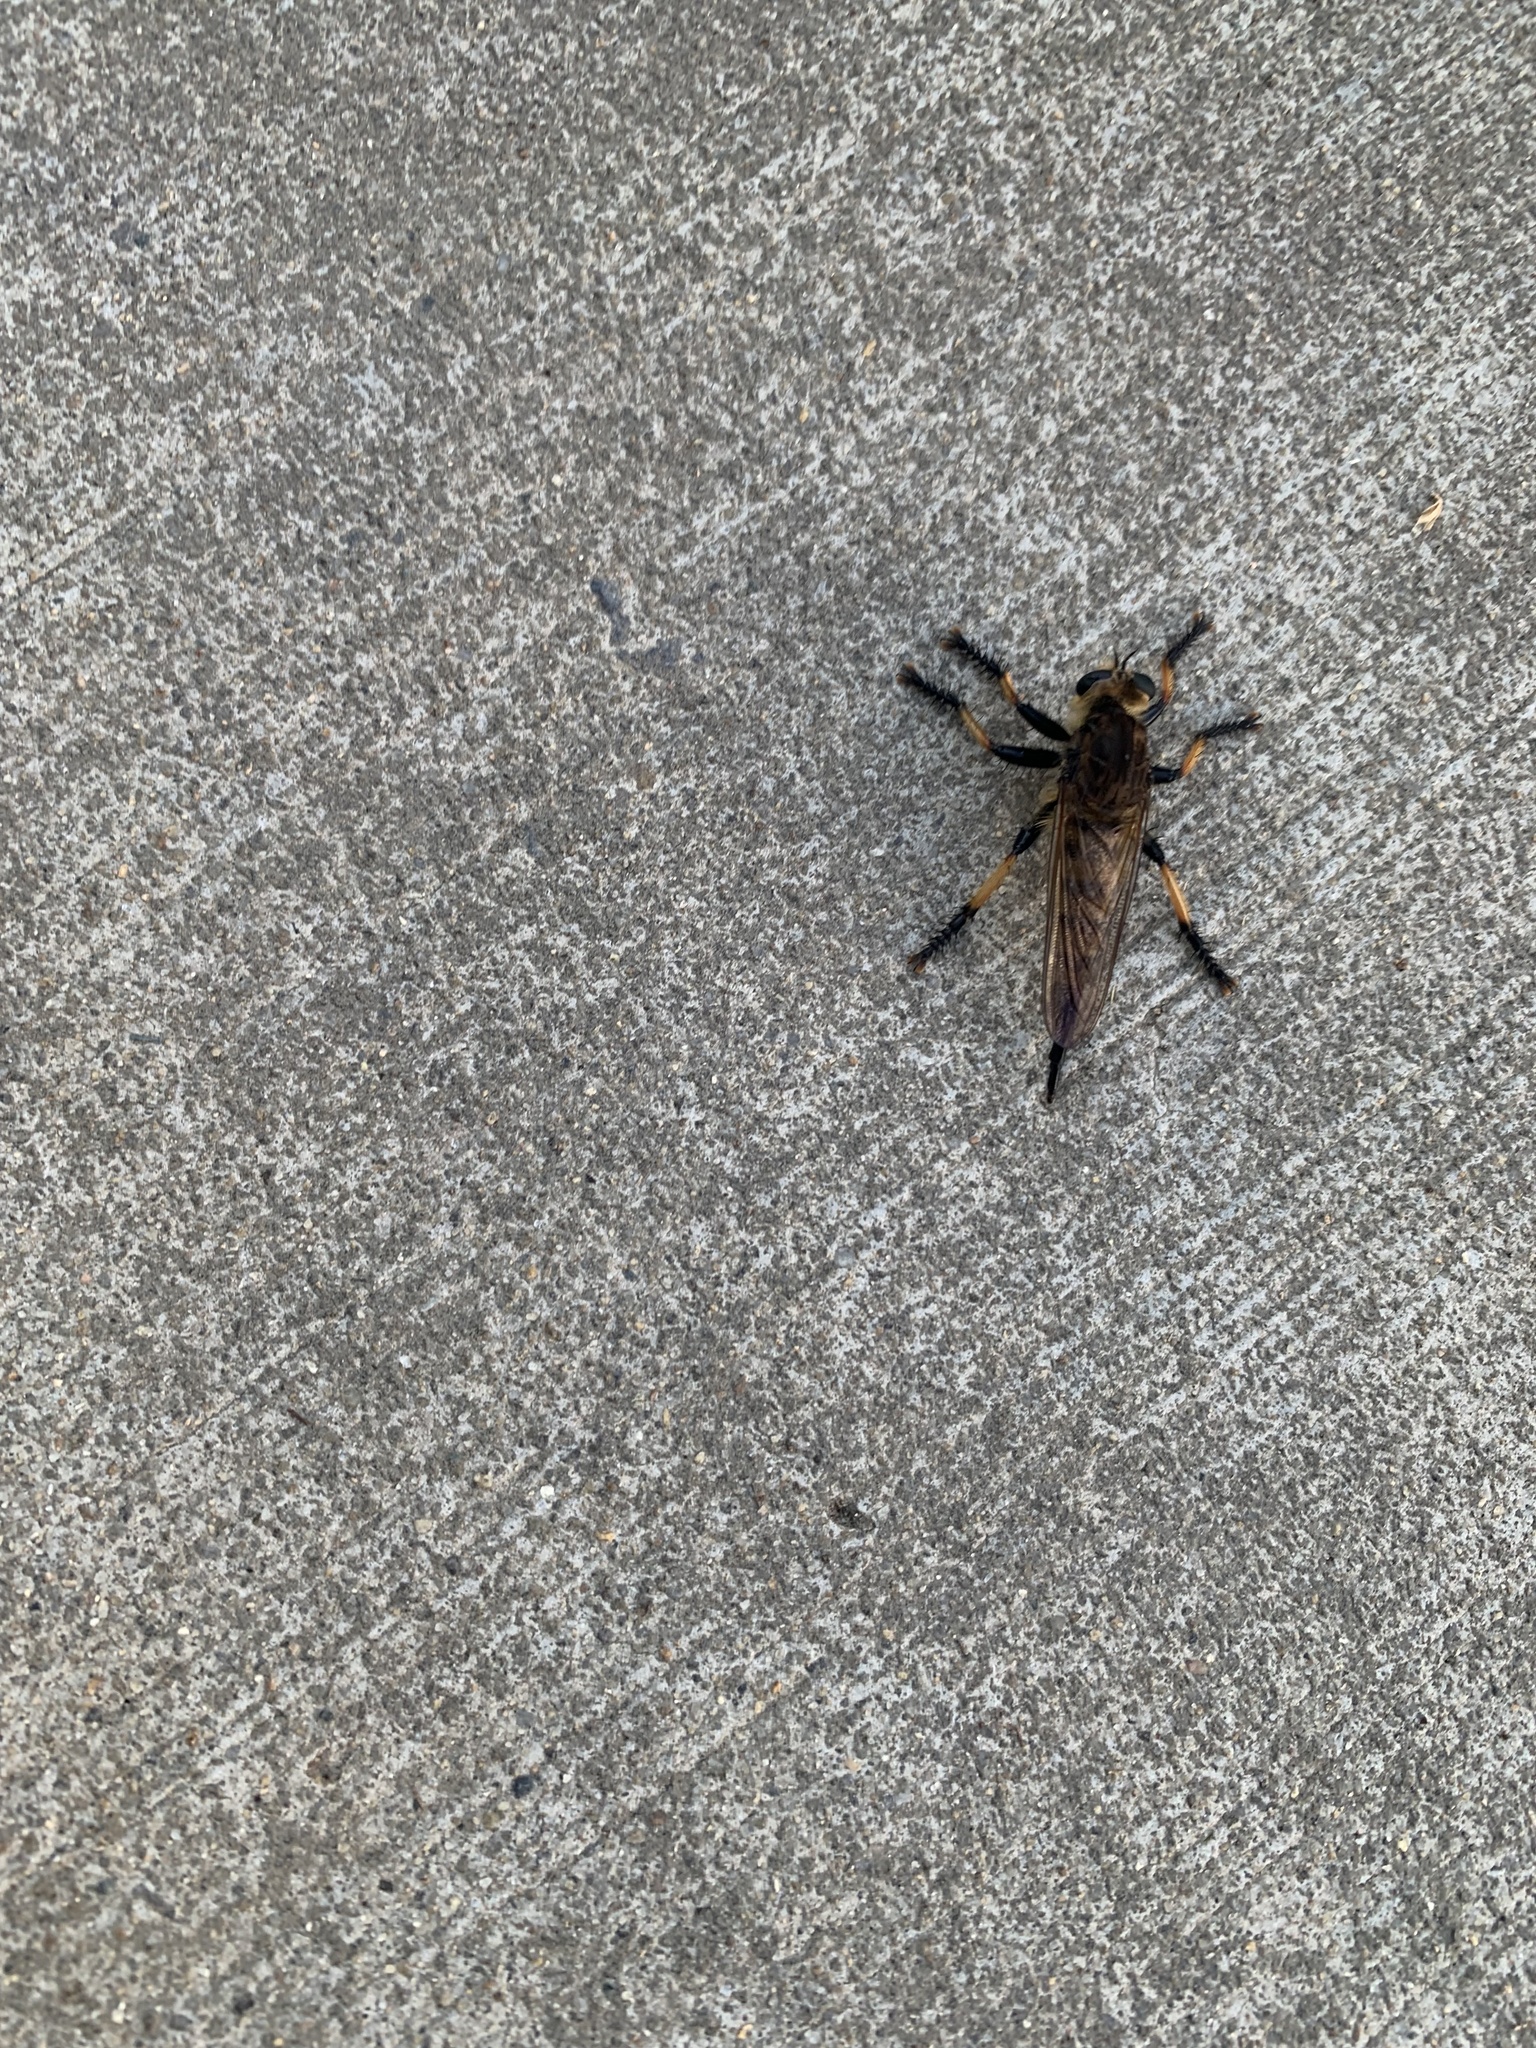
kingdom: Animalia
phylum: Arthropoda
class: Insecta
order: Diptera
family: Asilidae
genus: Promachus
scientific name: Promachus rufipes
